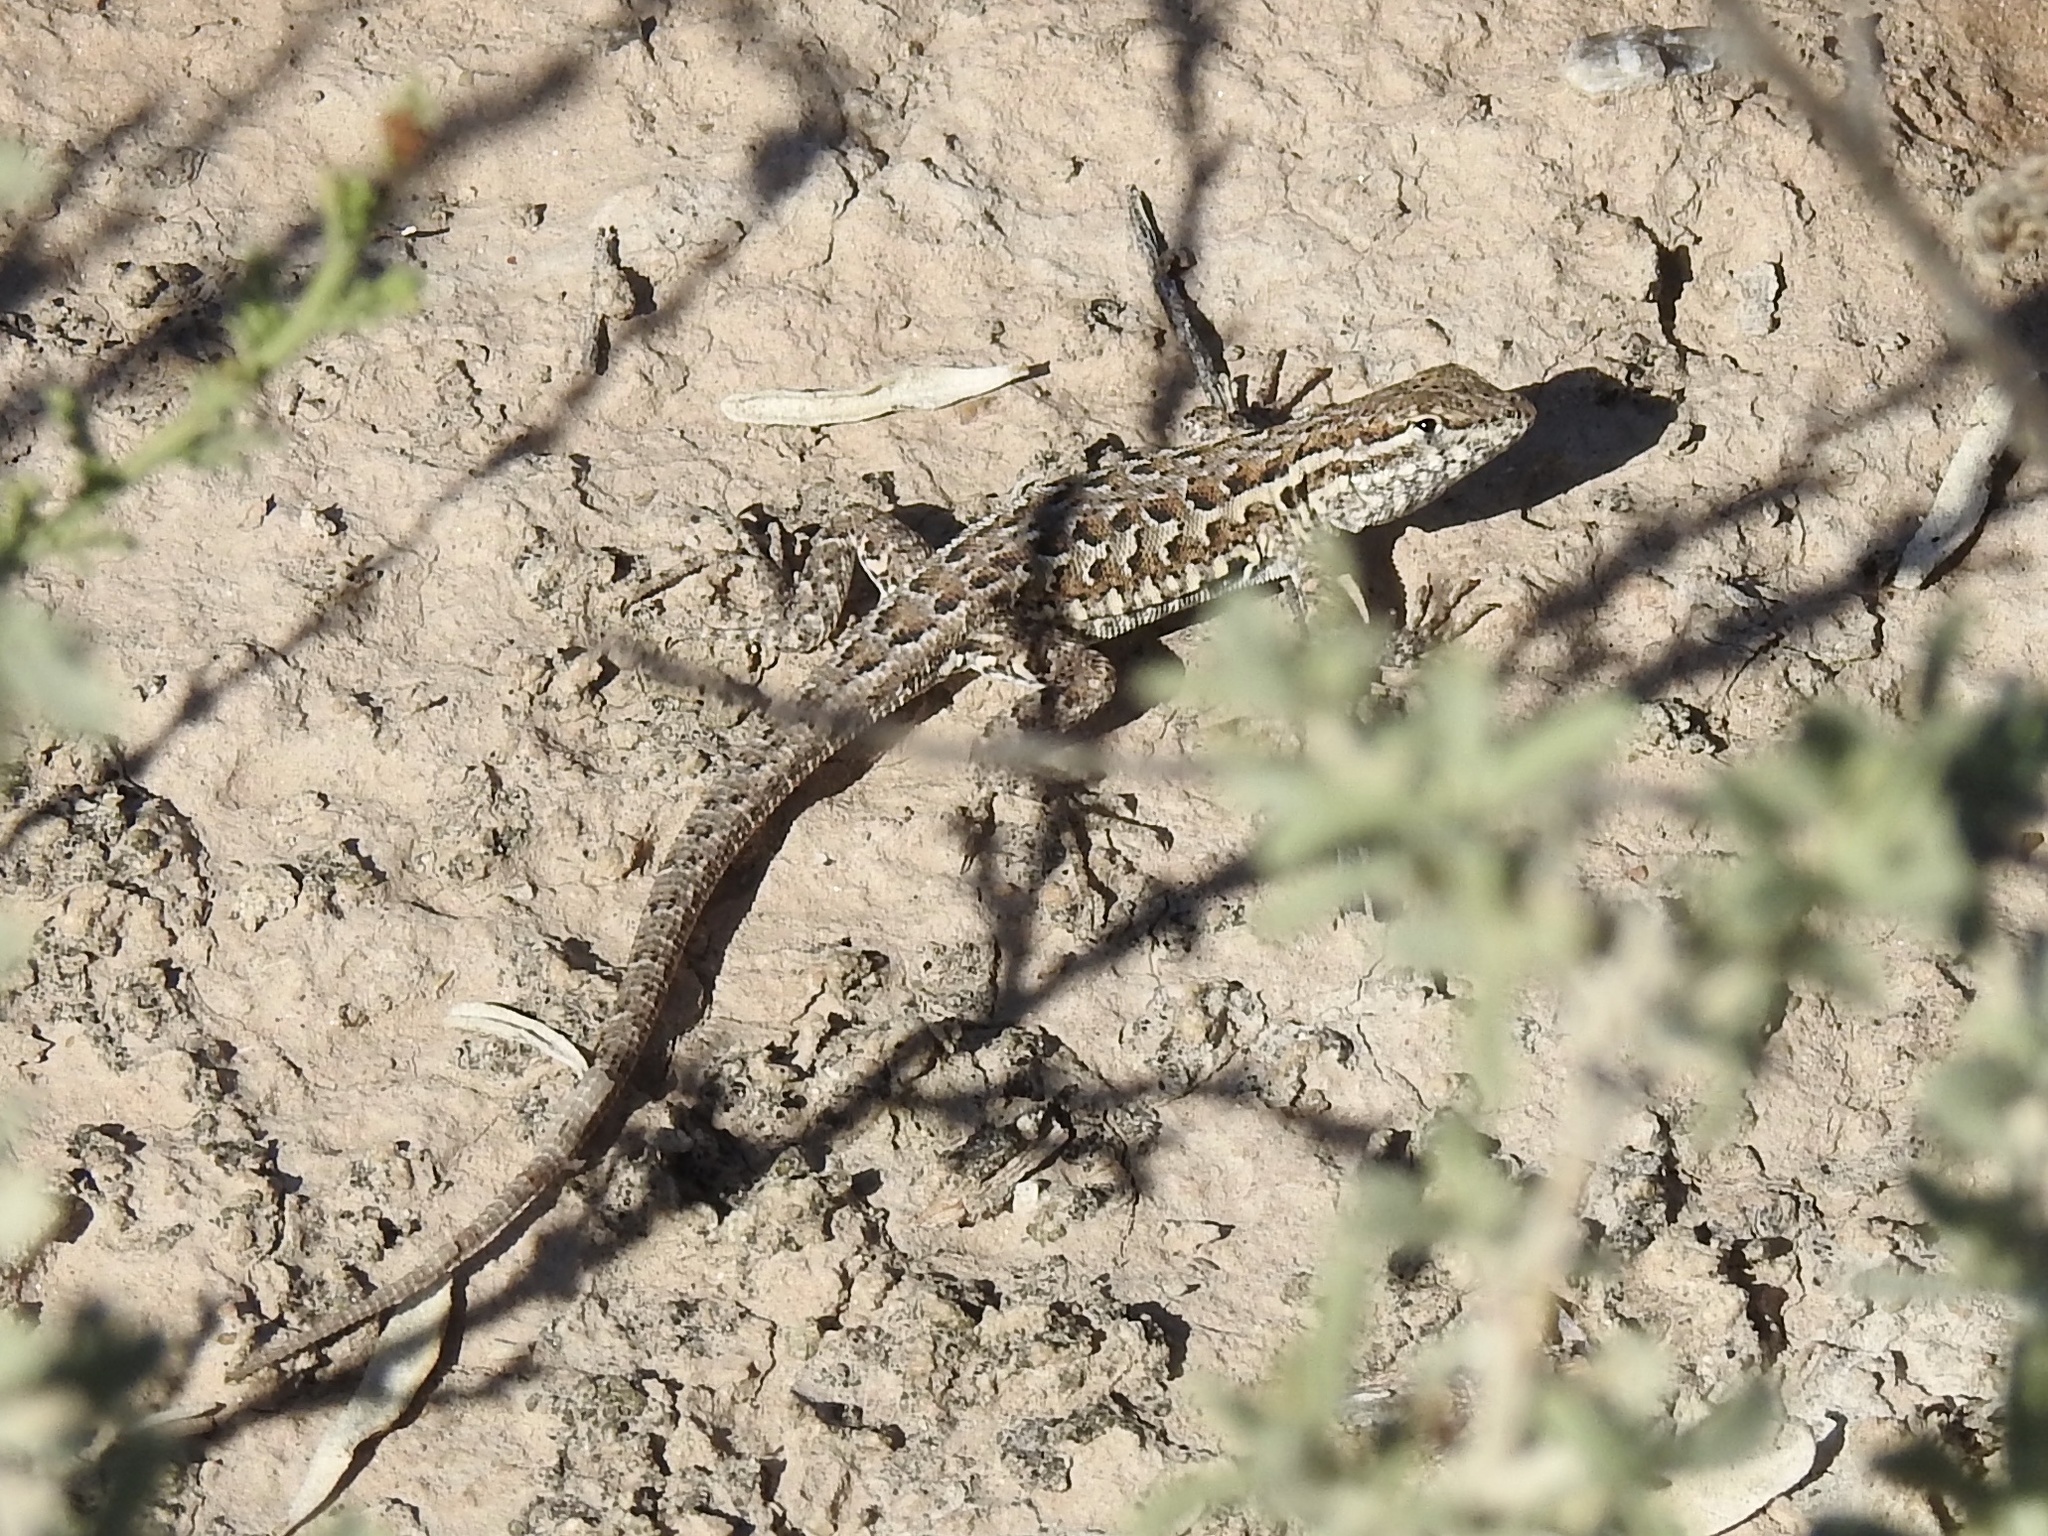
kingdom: Animalia
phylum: Chordata
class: Squamata
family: Phrynosomatidae
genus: Uta
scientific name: Uta stansburiana
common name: Side-blotched lizard
